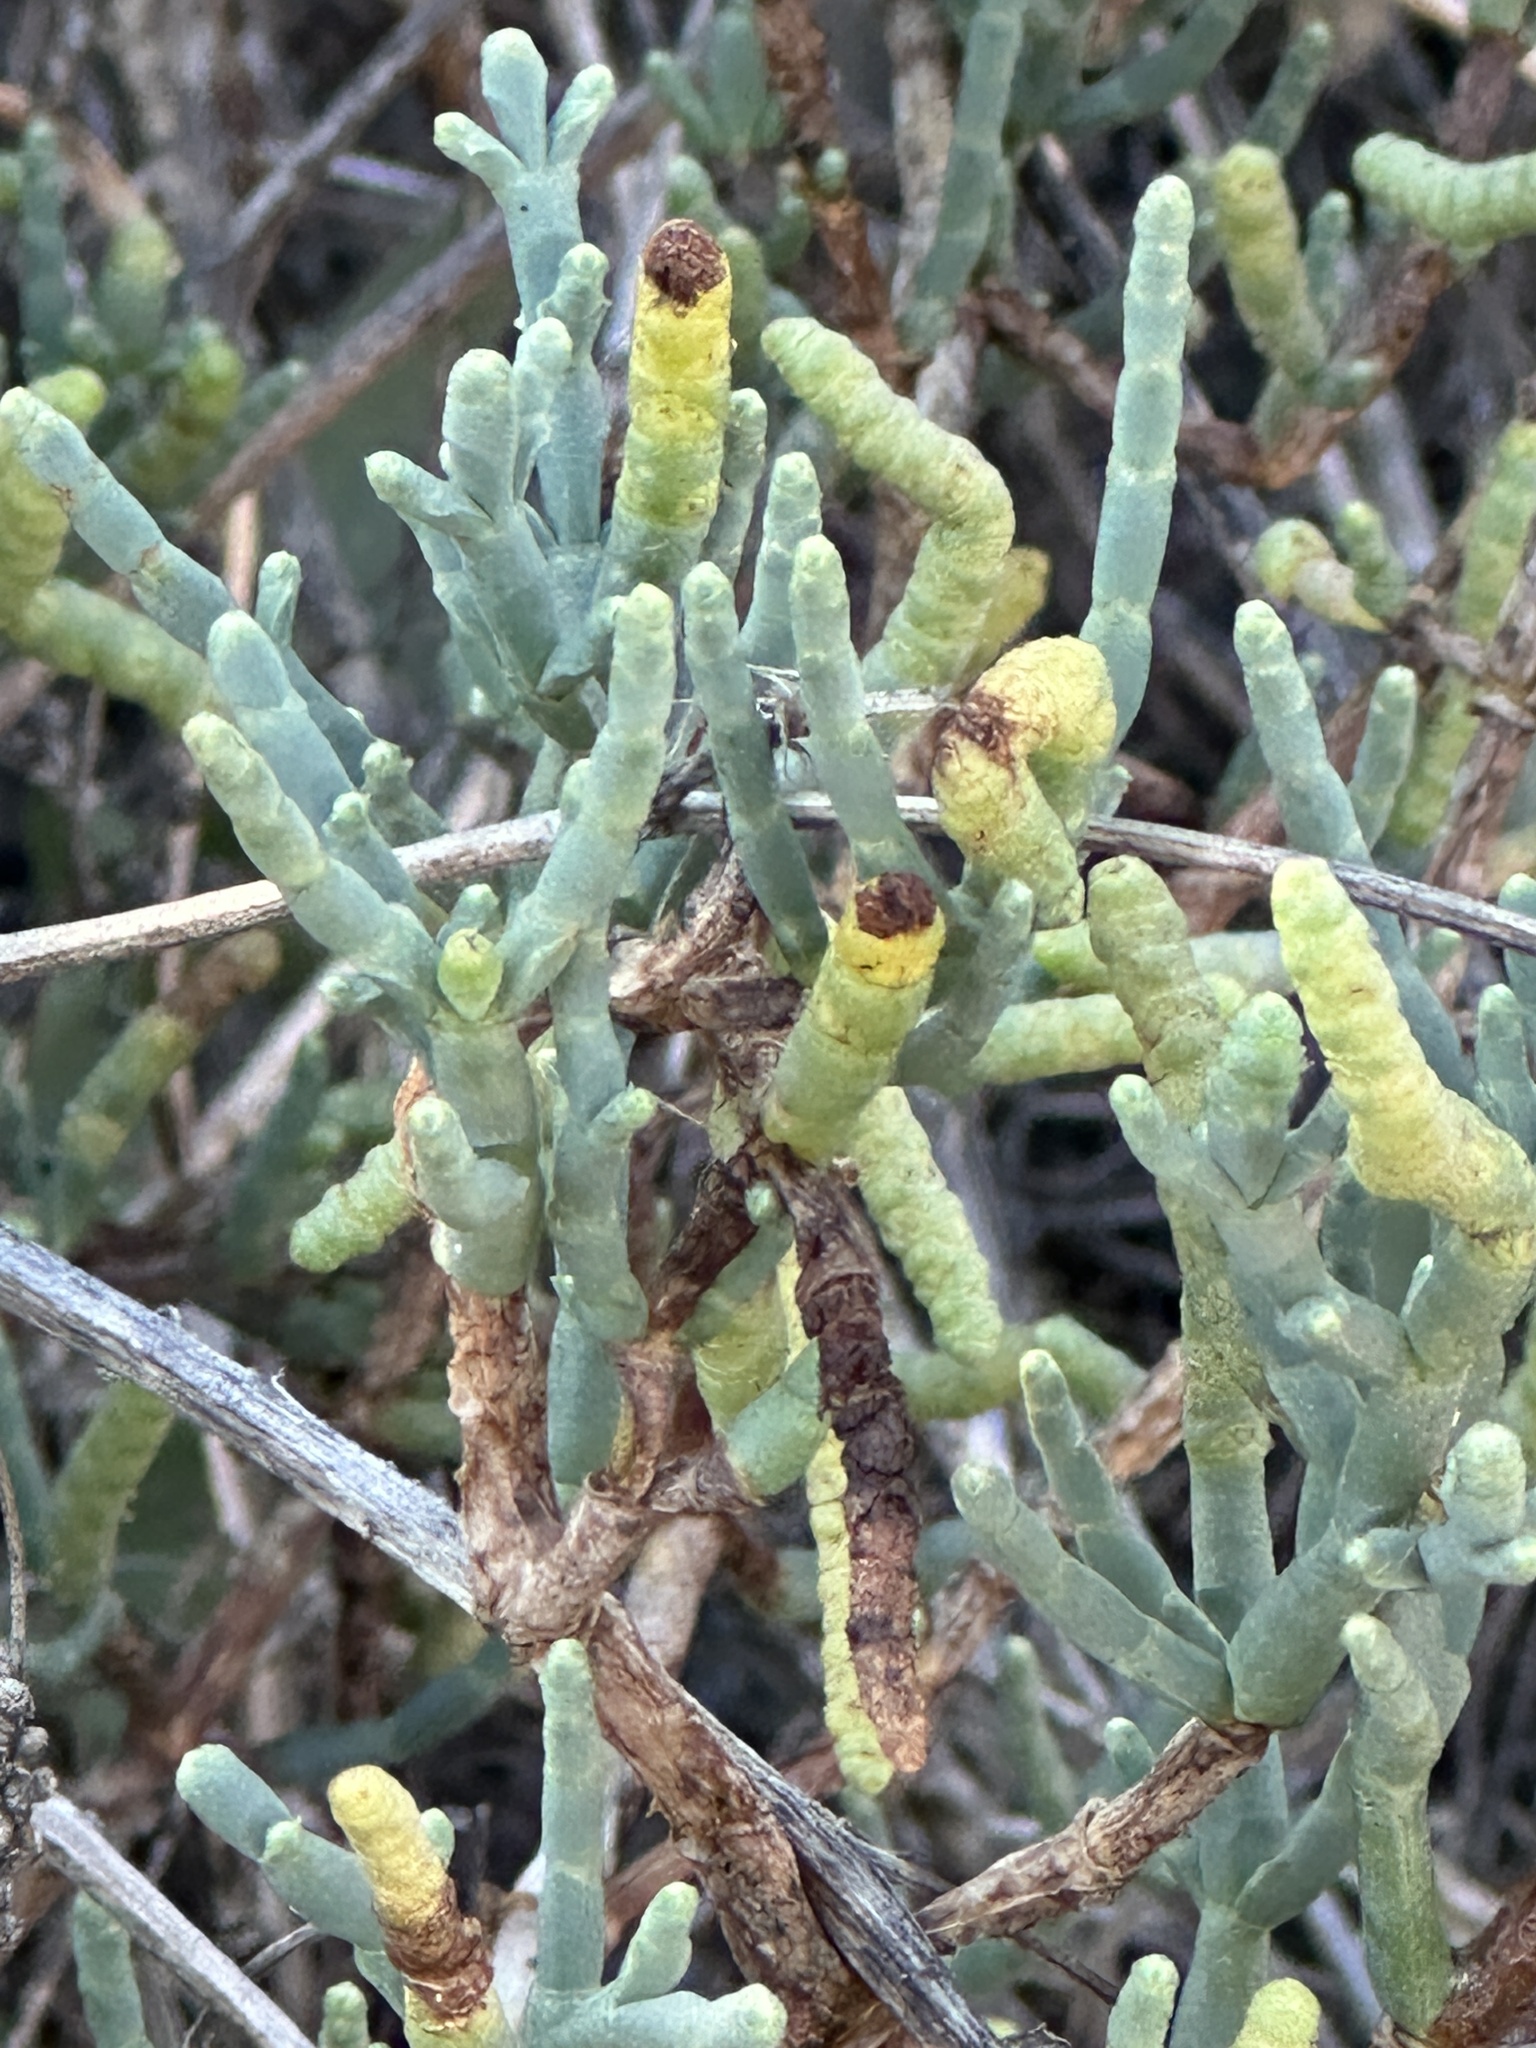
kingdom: Plantae
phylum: Tracheophyta
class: Magnoliopsida
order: Caryophyllales
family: Amaranthaceae
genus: Salicornia
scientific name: Salicornia pacifica
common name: Pacific glasswort
